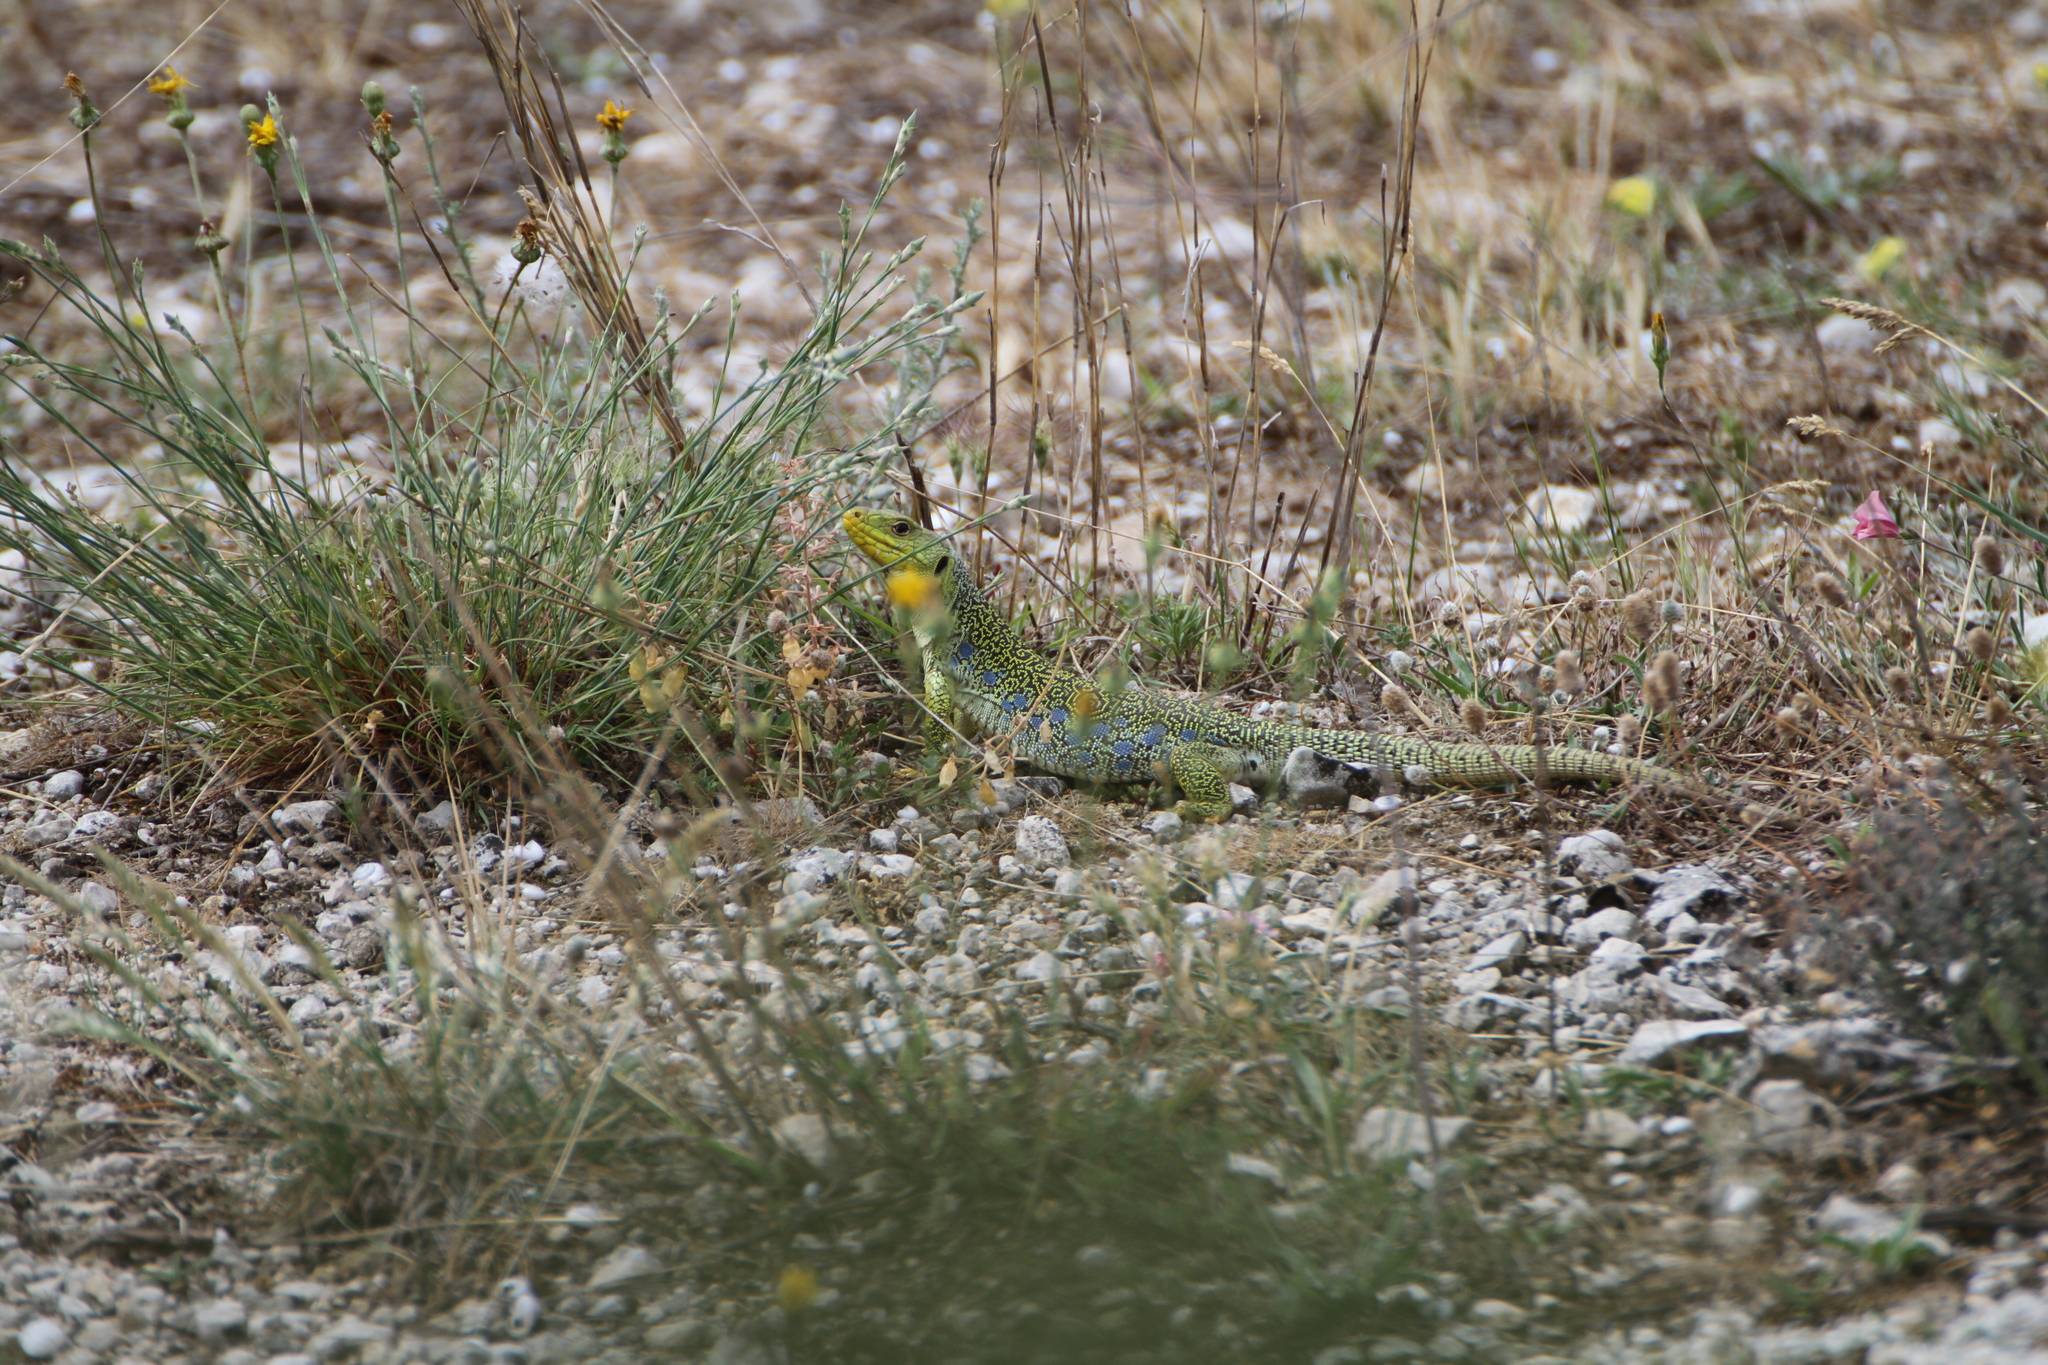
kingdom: Animalia
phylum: Chordata
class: Squamata
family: Lacertidae
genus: Timon
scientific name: Timon lepidus
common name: Ocellated lizard
